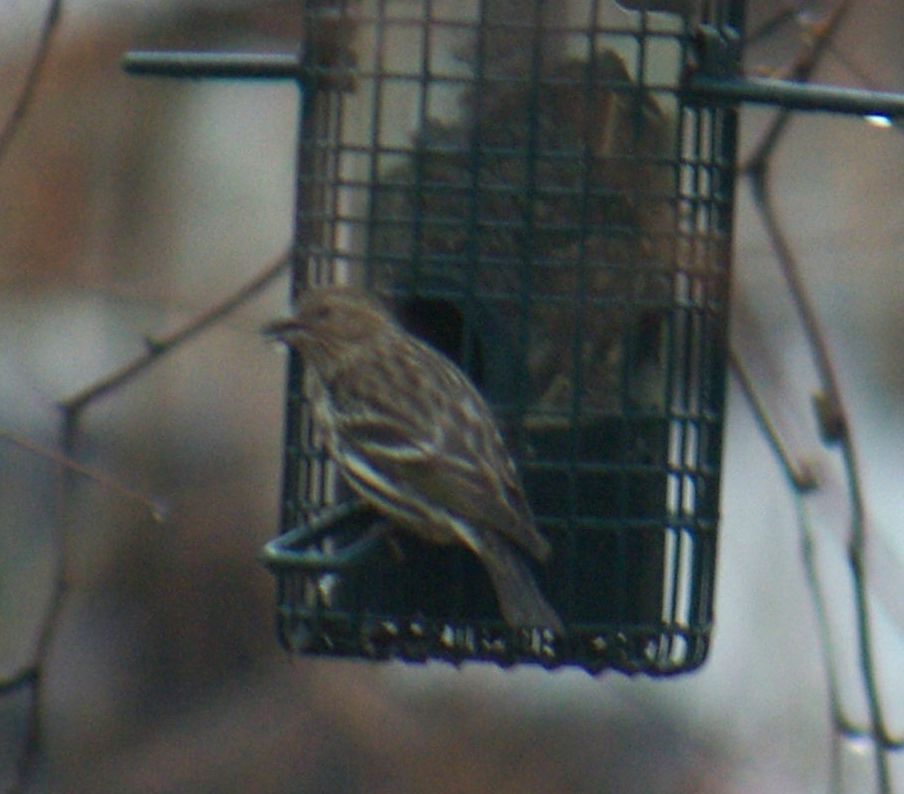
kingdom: Animalia
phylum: Chordata
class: Aves
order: Passeriformes
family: Fringillidae
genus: Spinus
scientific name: Spinus pinus
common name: Pine siskin
